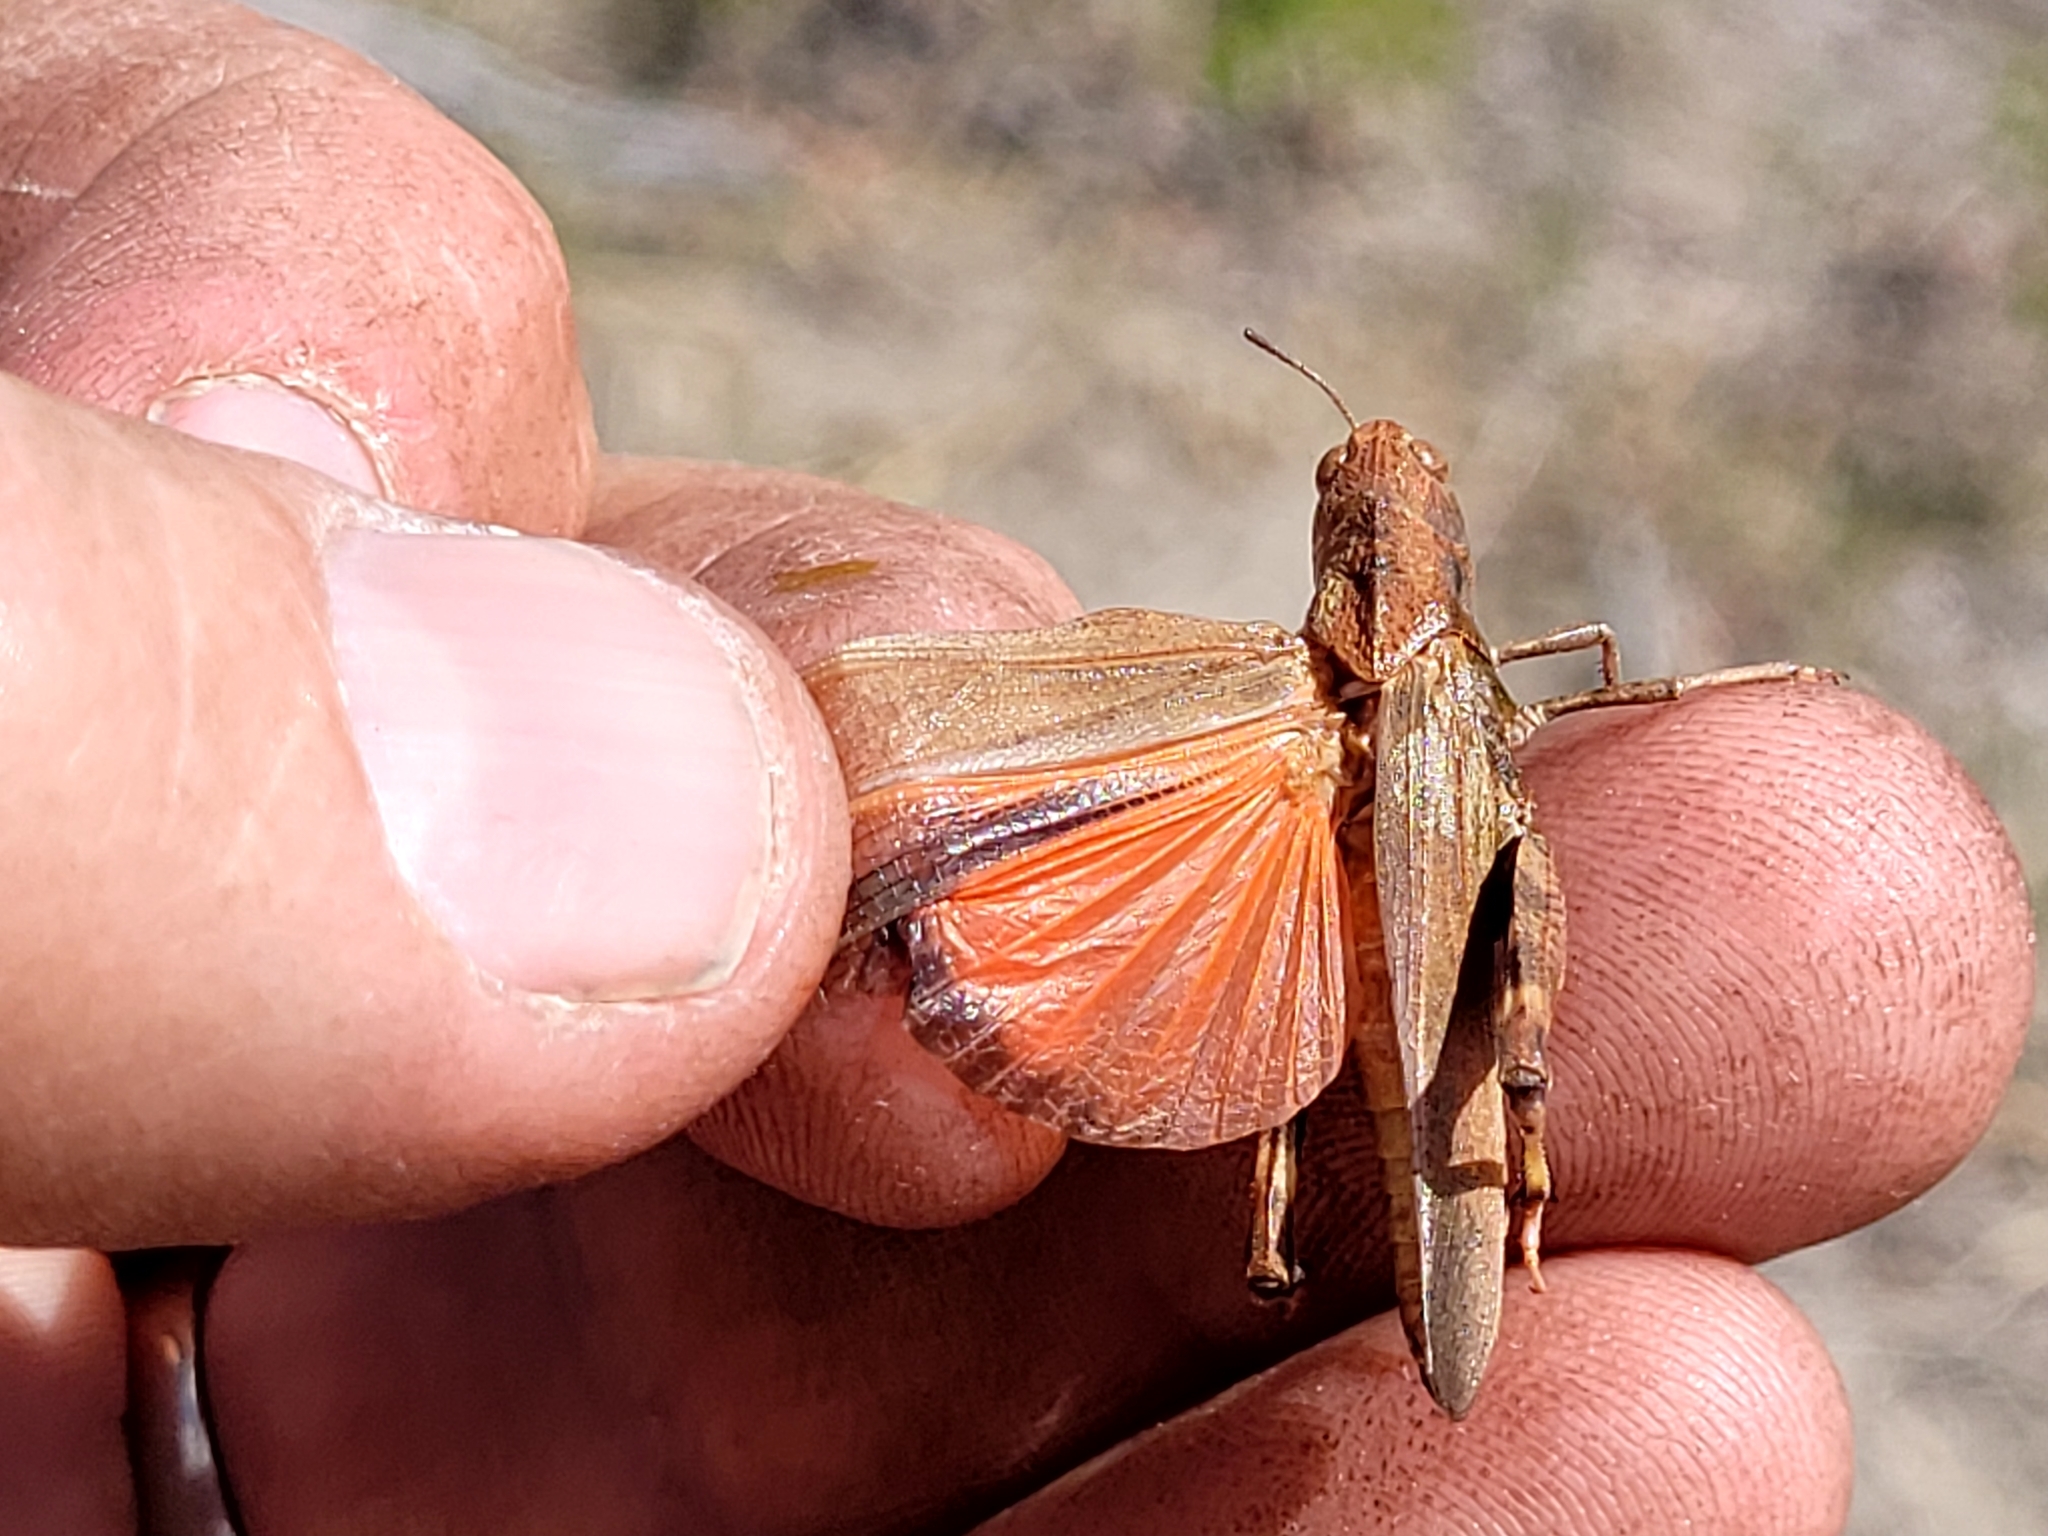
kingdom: Animalia
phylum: Arthropoda
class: Insecta
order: Orthoptera
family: Acrididae
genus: Arphia
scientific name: Arphia conspersa
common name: Speckle-winged rangeland grasshopper
